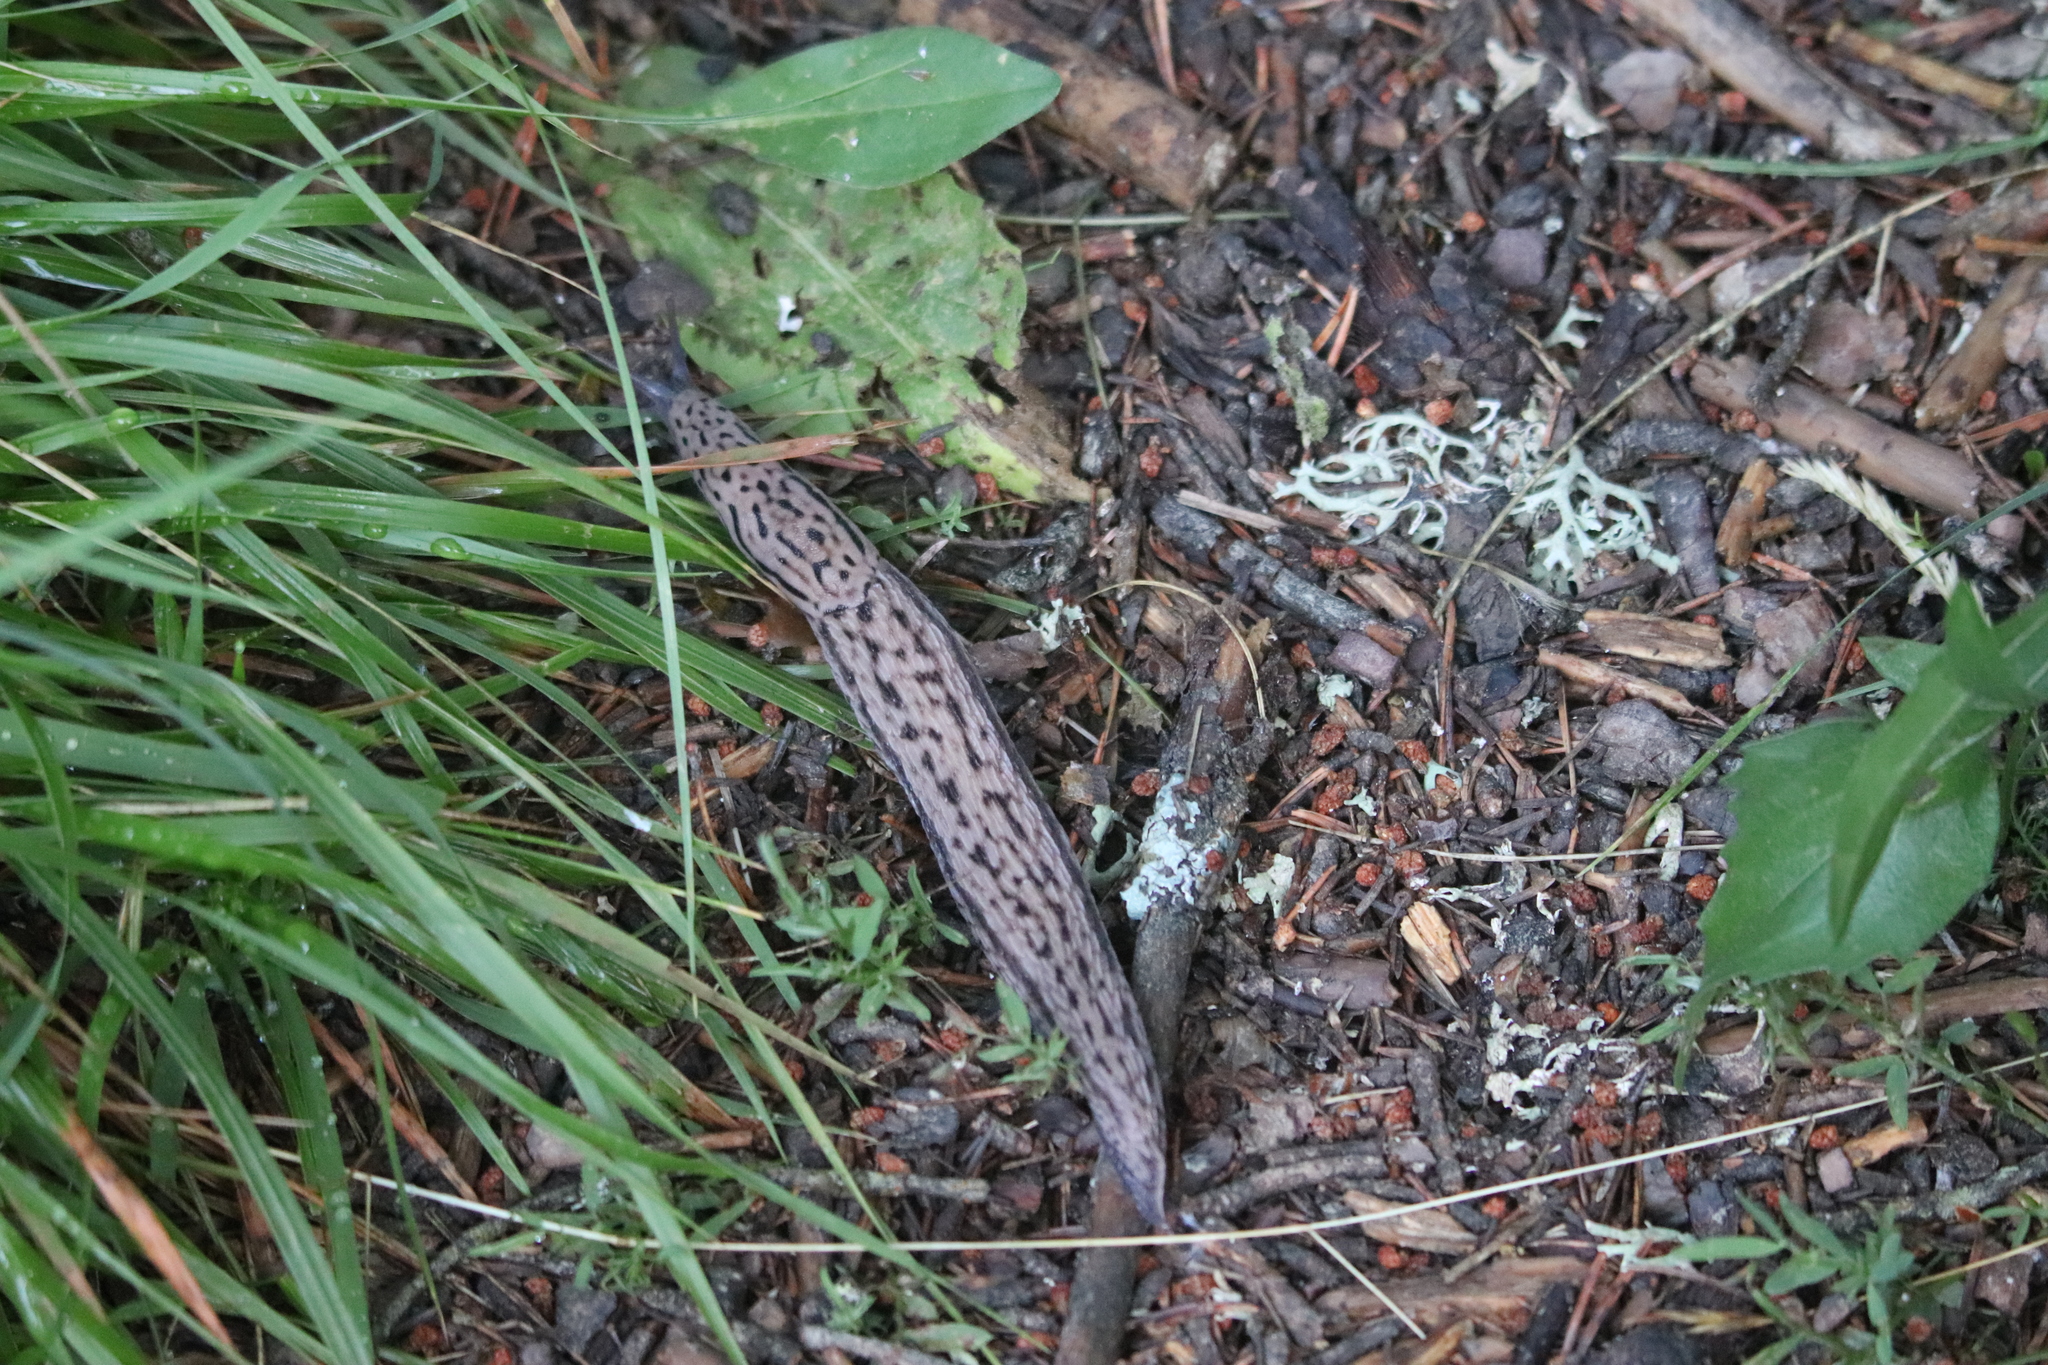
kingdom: Animalia
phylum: Mollusca
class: Gastropoda
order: Stylommatophora
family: Limacidae
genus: Limax
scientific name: Limax maximus
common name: Great grey slug
